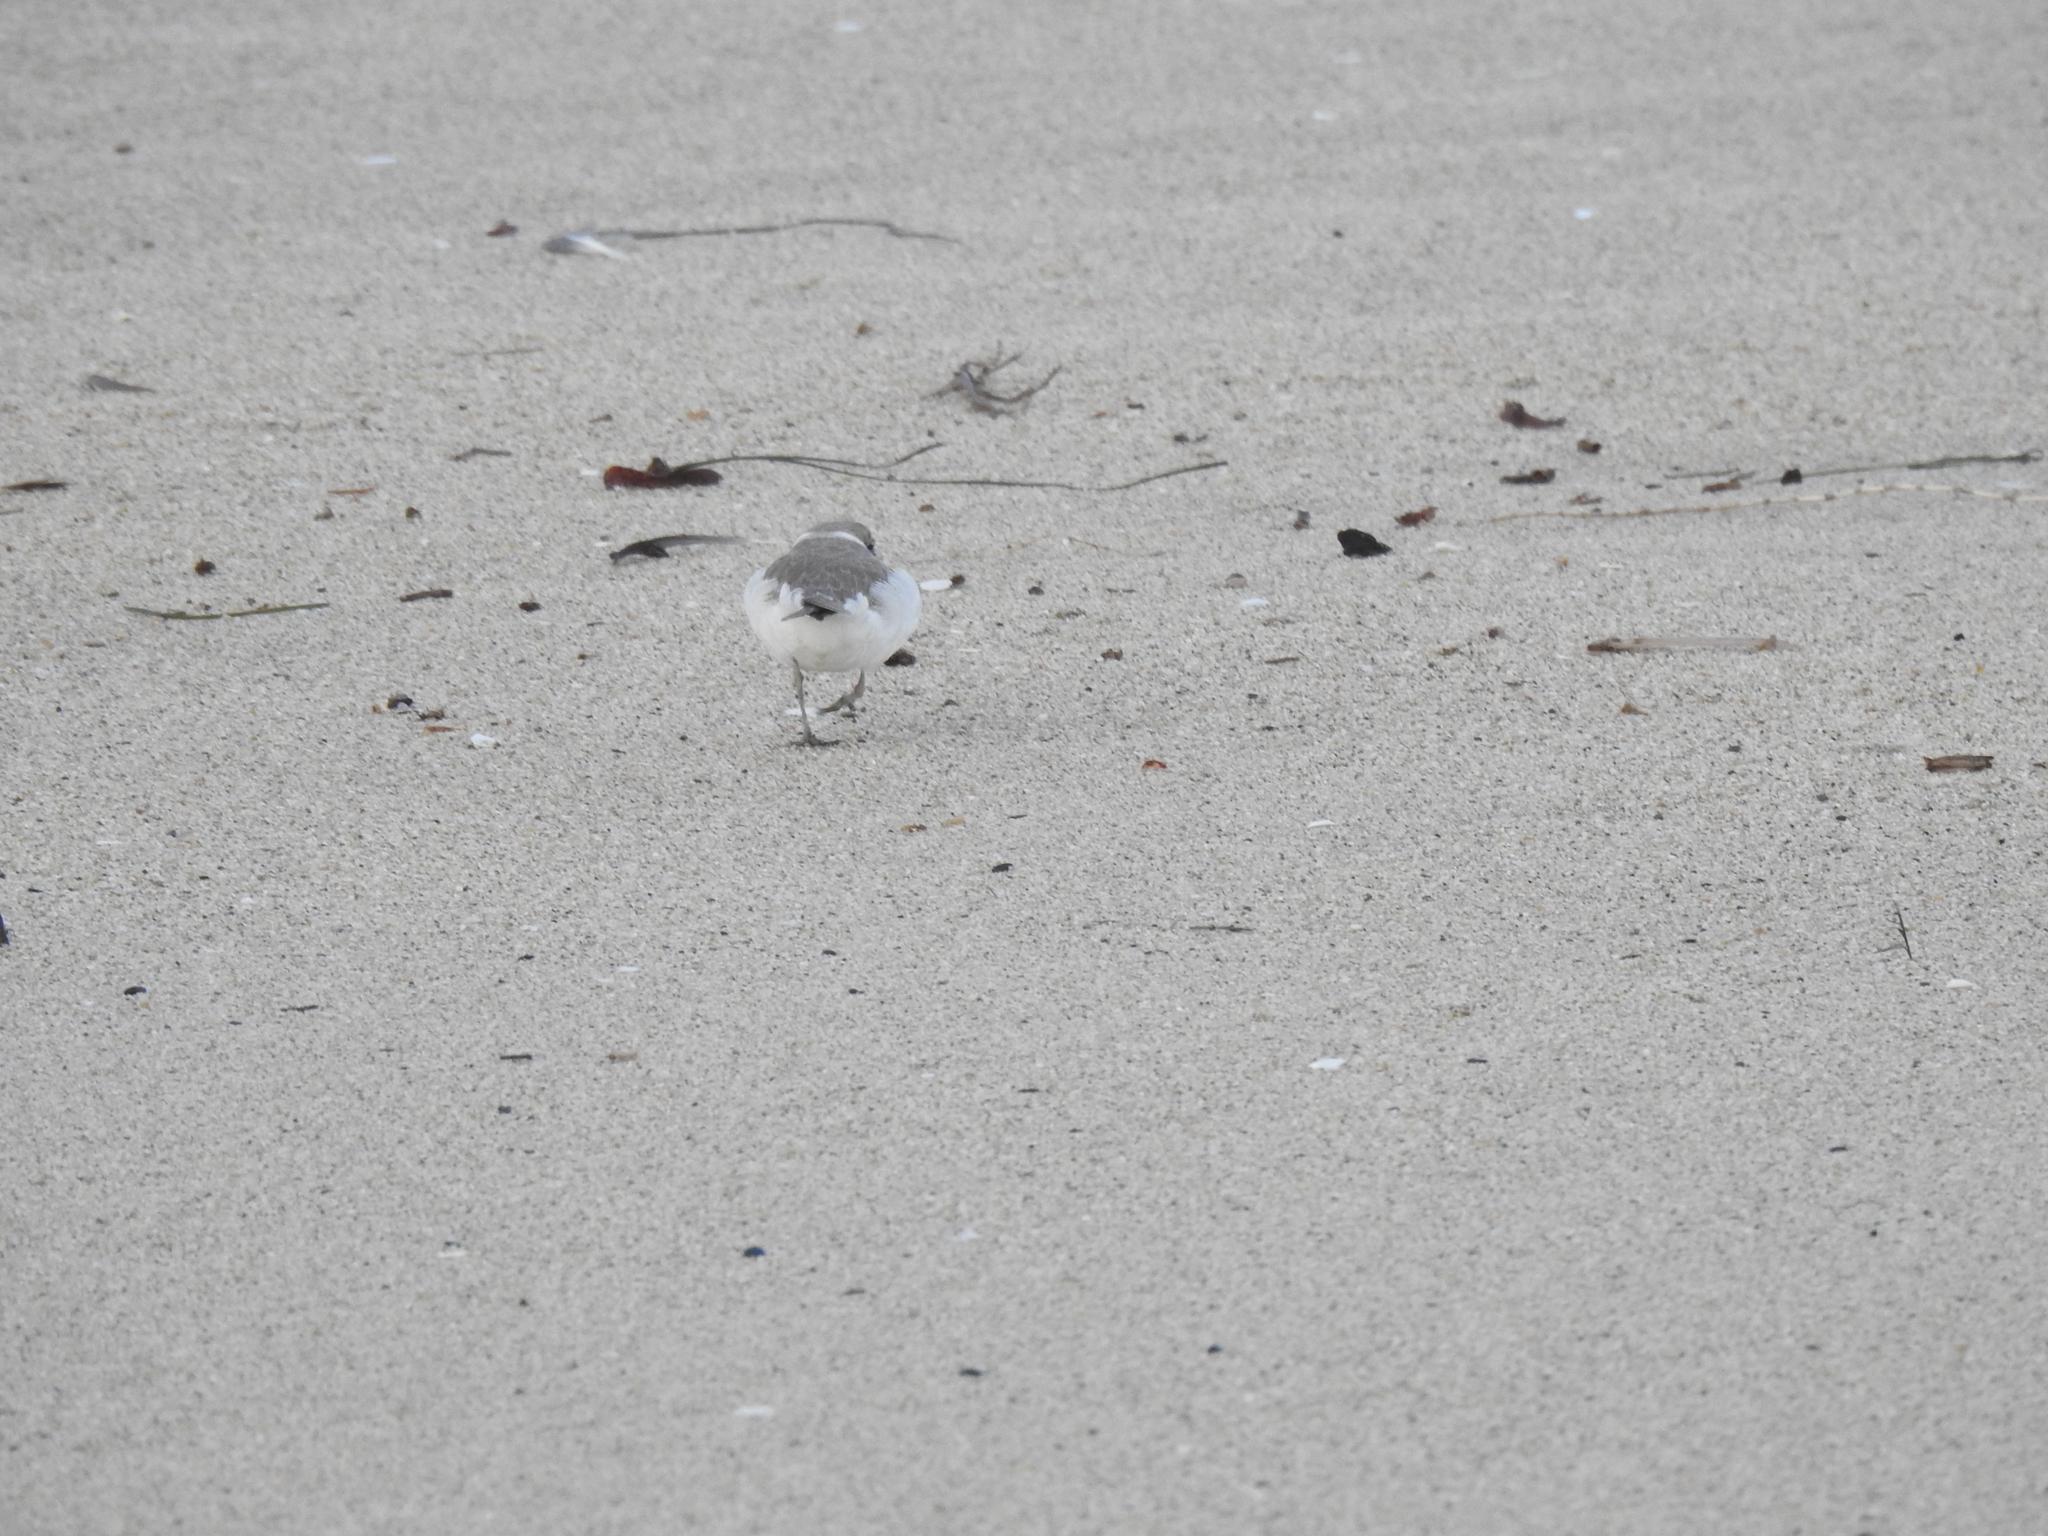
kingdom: Animalia
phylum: Chordata
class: Aves
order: Charadriiformes
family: Charadriidae
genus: Anarhynchus
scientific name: Anarhynchus
